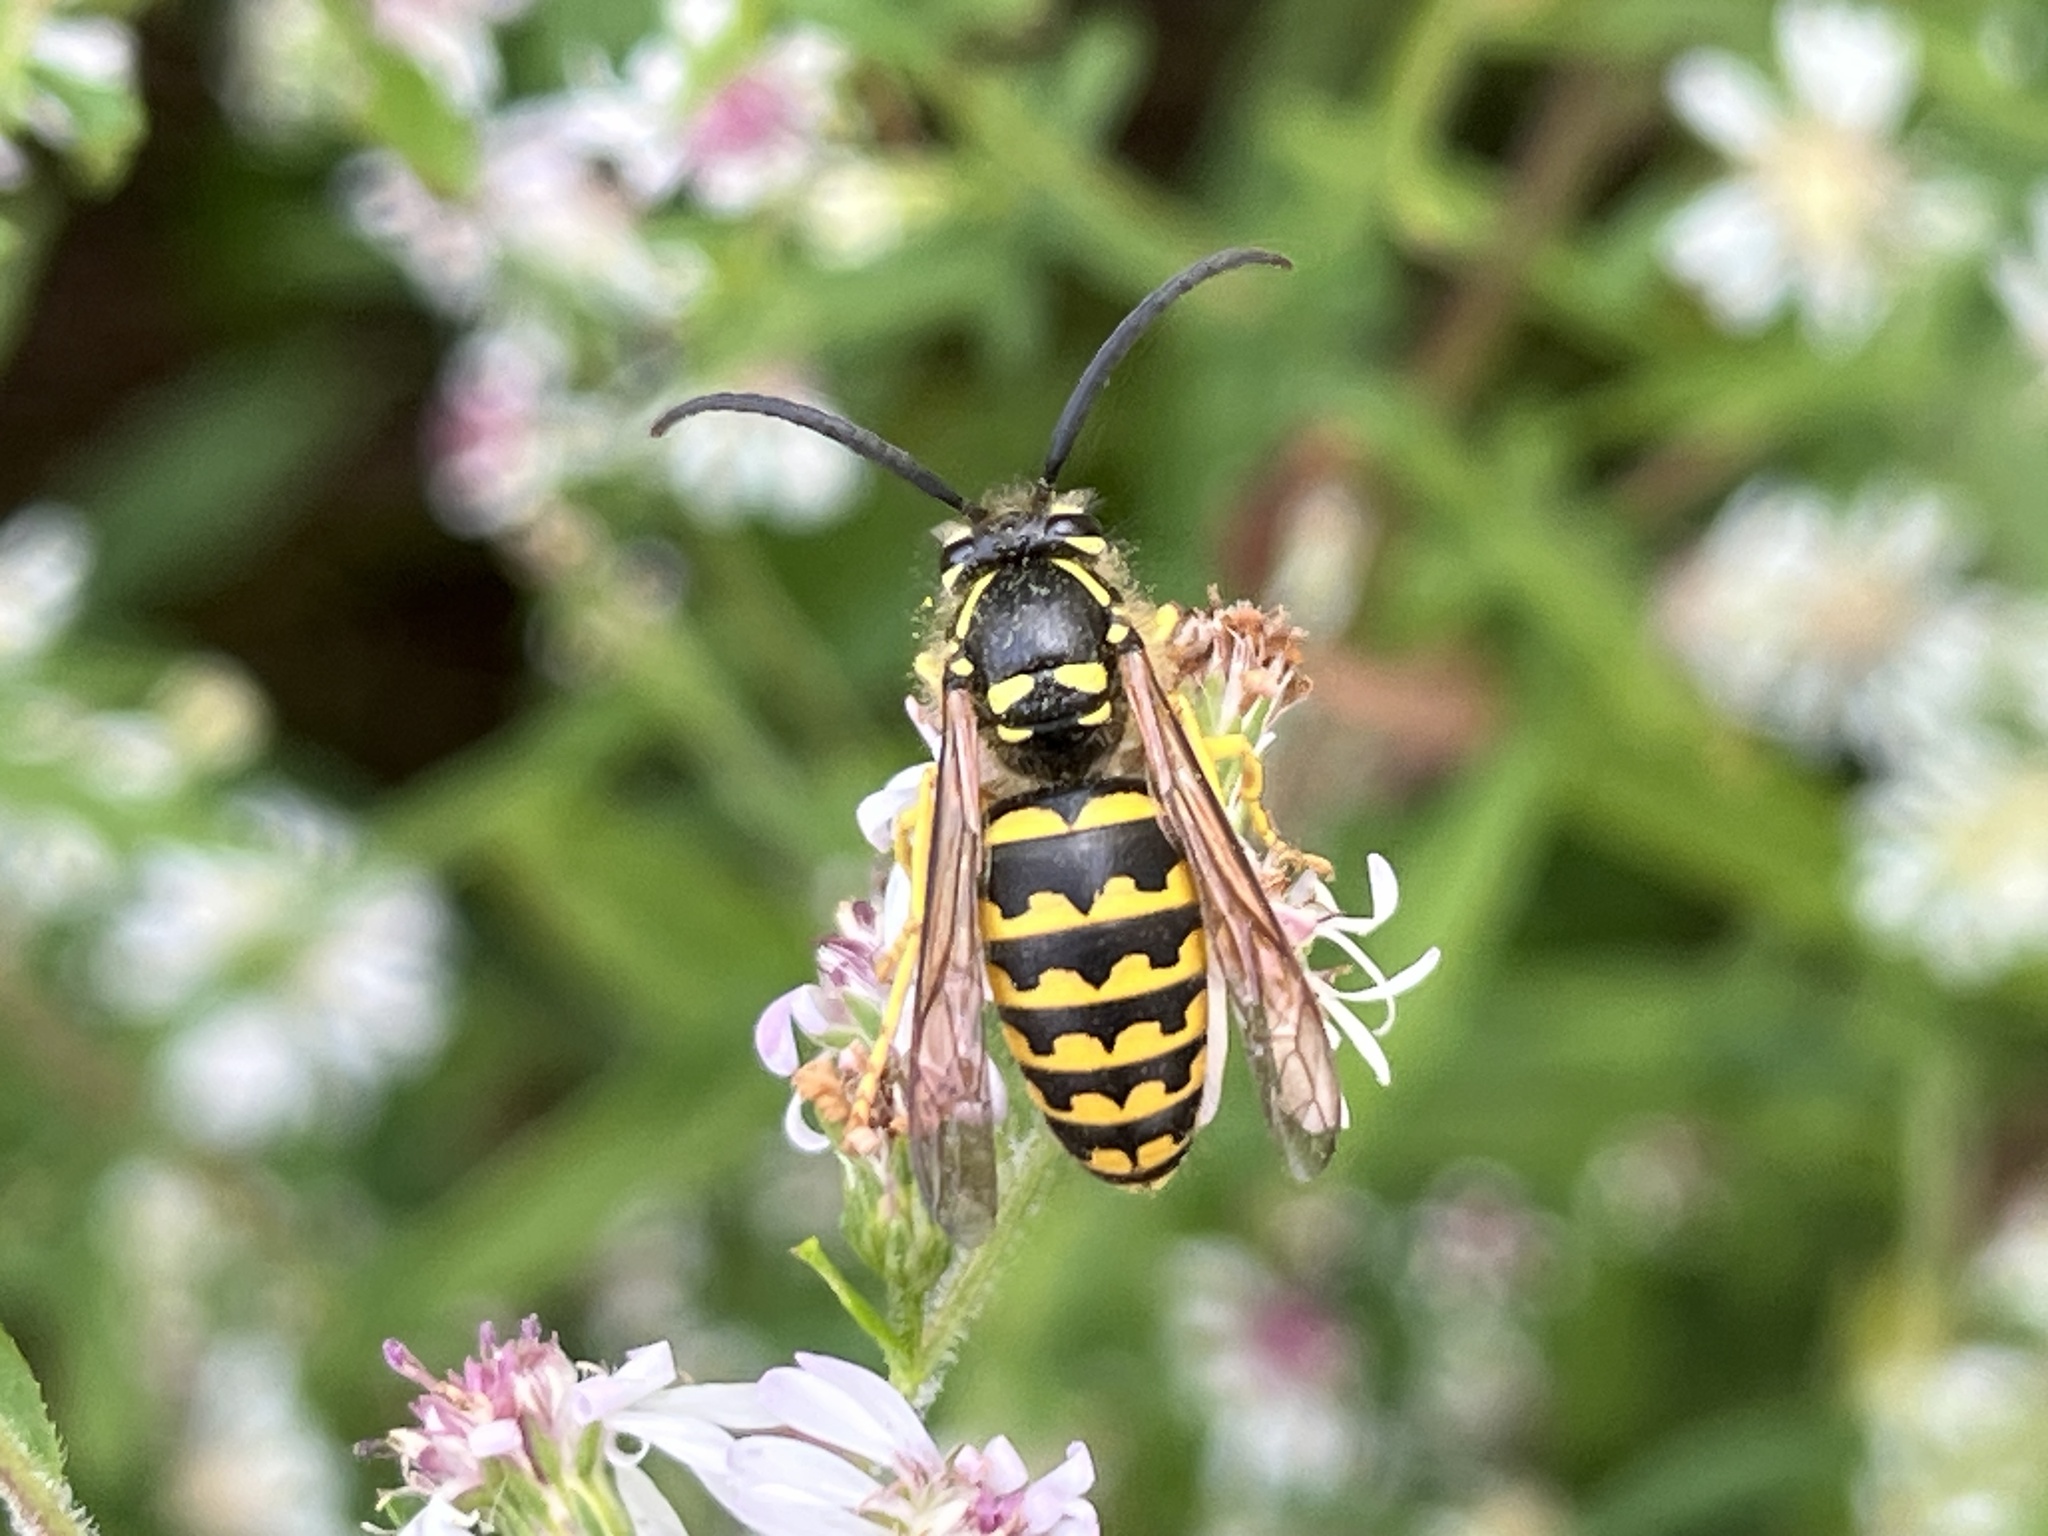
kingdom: Animalia
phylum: Arthropoda
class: Insecta
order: Hymenoptera
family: Vespidae
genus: Dolichovespula
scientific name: Dolichovespula arenaria
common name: Aerial yellowjacket
